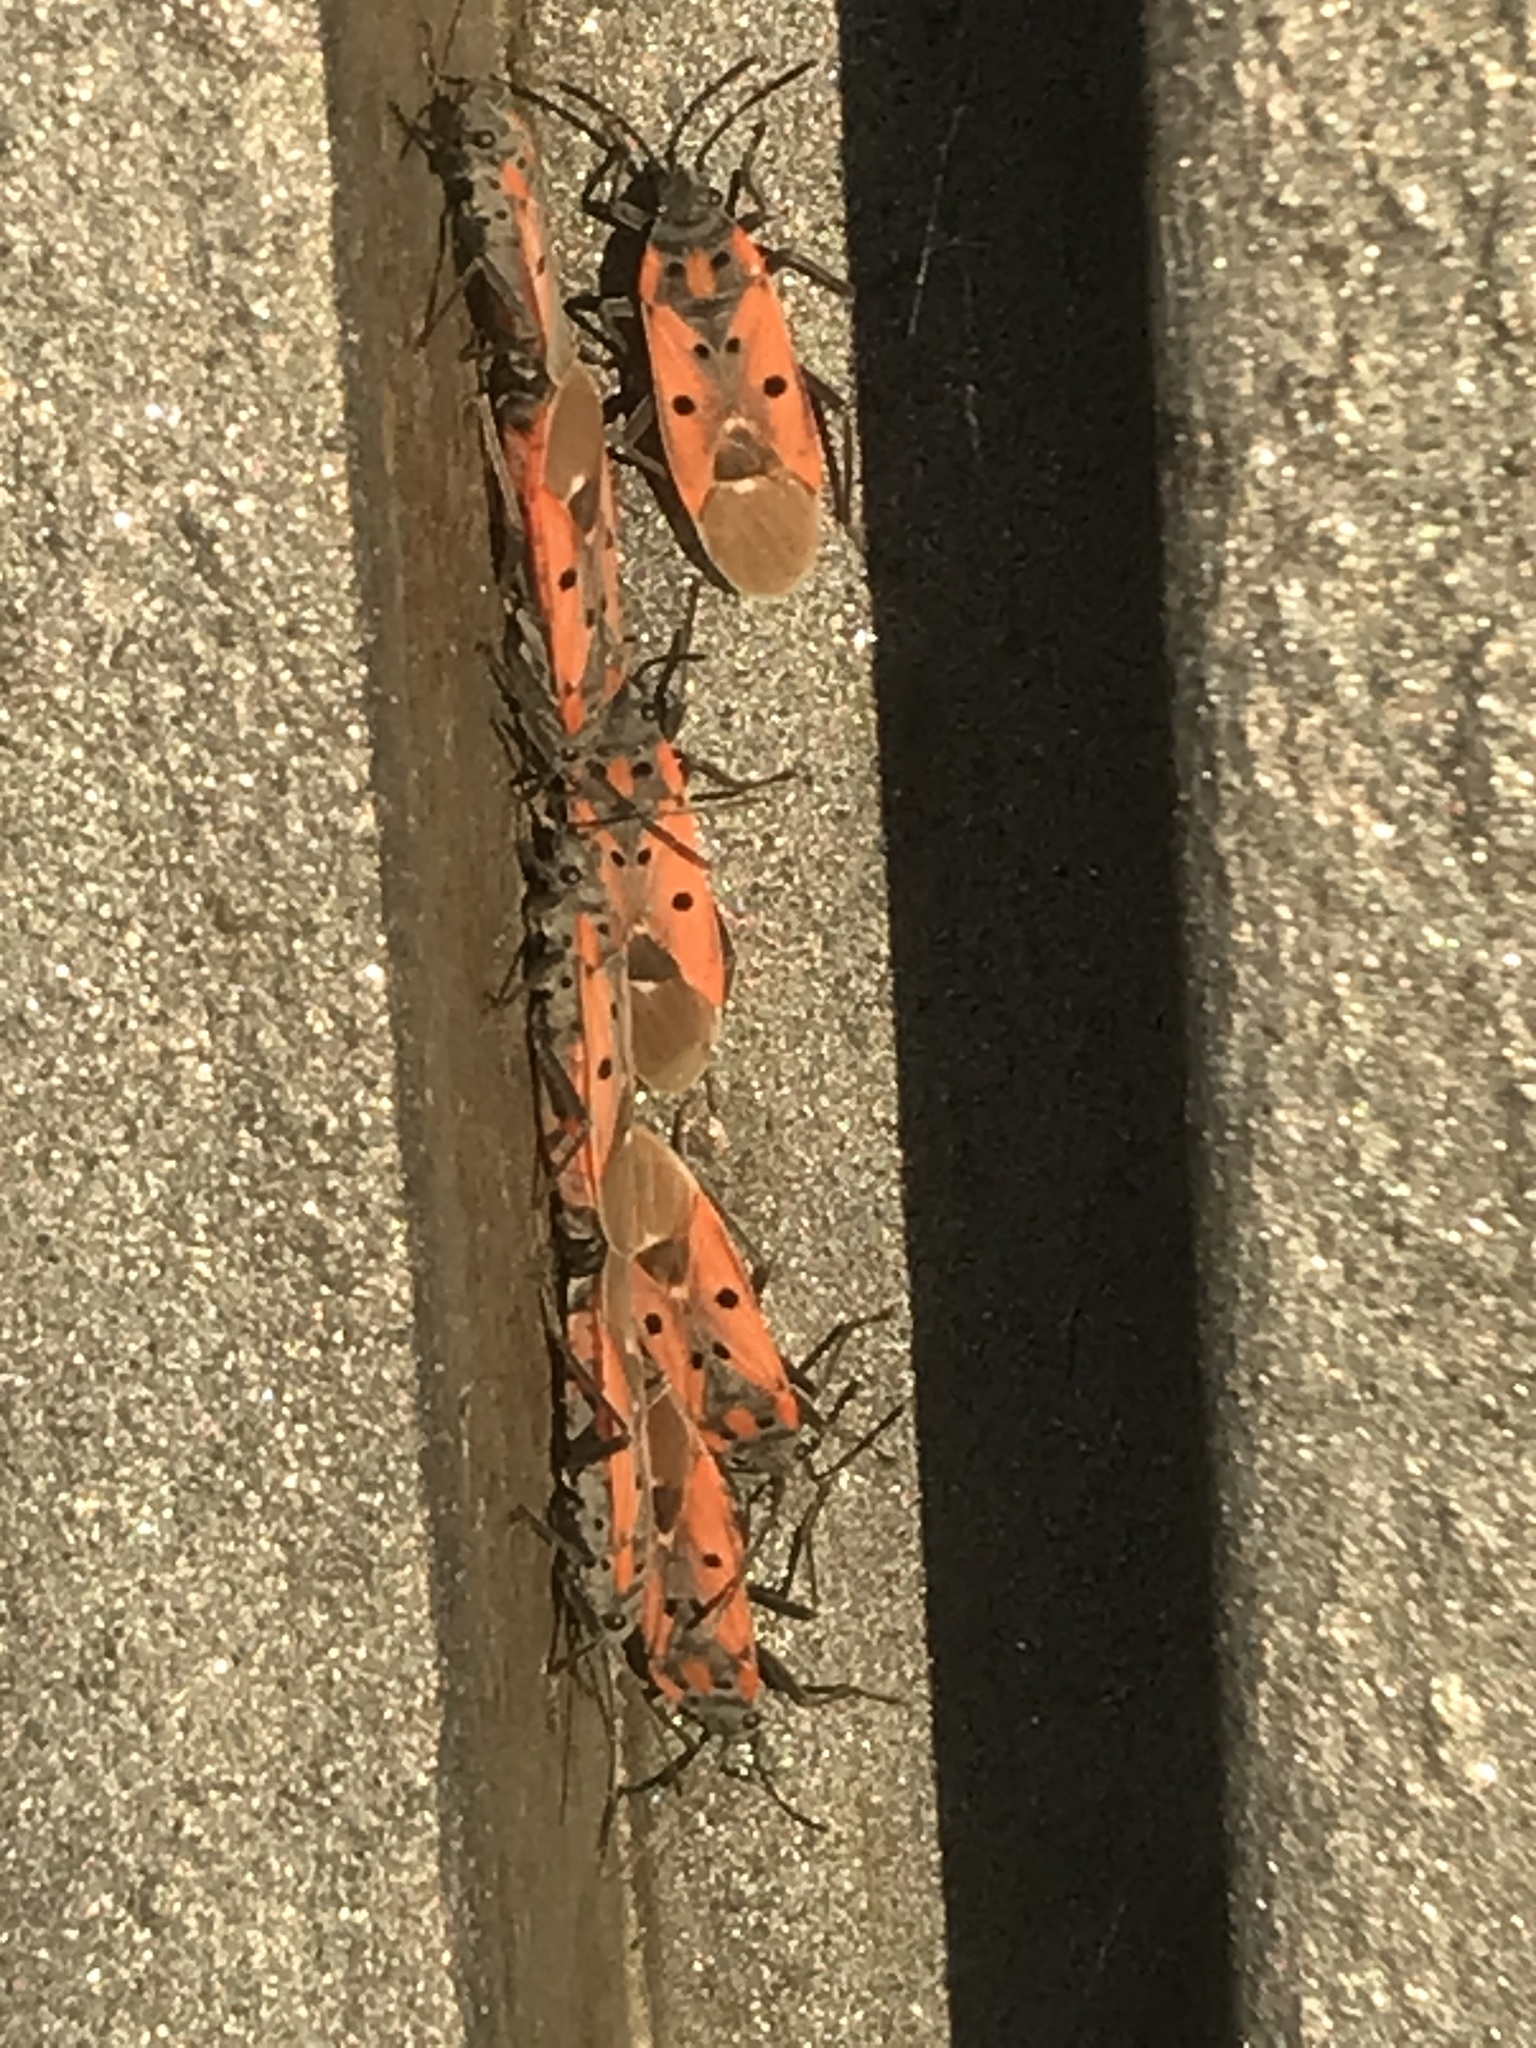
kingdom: Animalia
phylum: Arthropoda
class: Insecta
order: Hemiptera
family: Lygaeidae
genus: Lygaeus
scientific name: Lygaeus creticus
